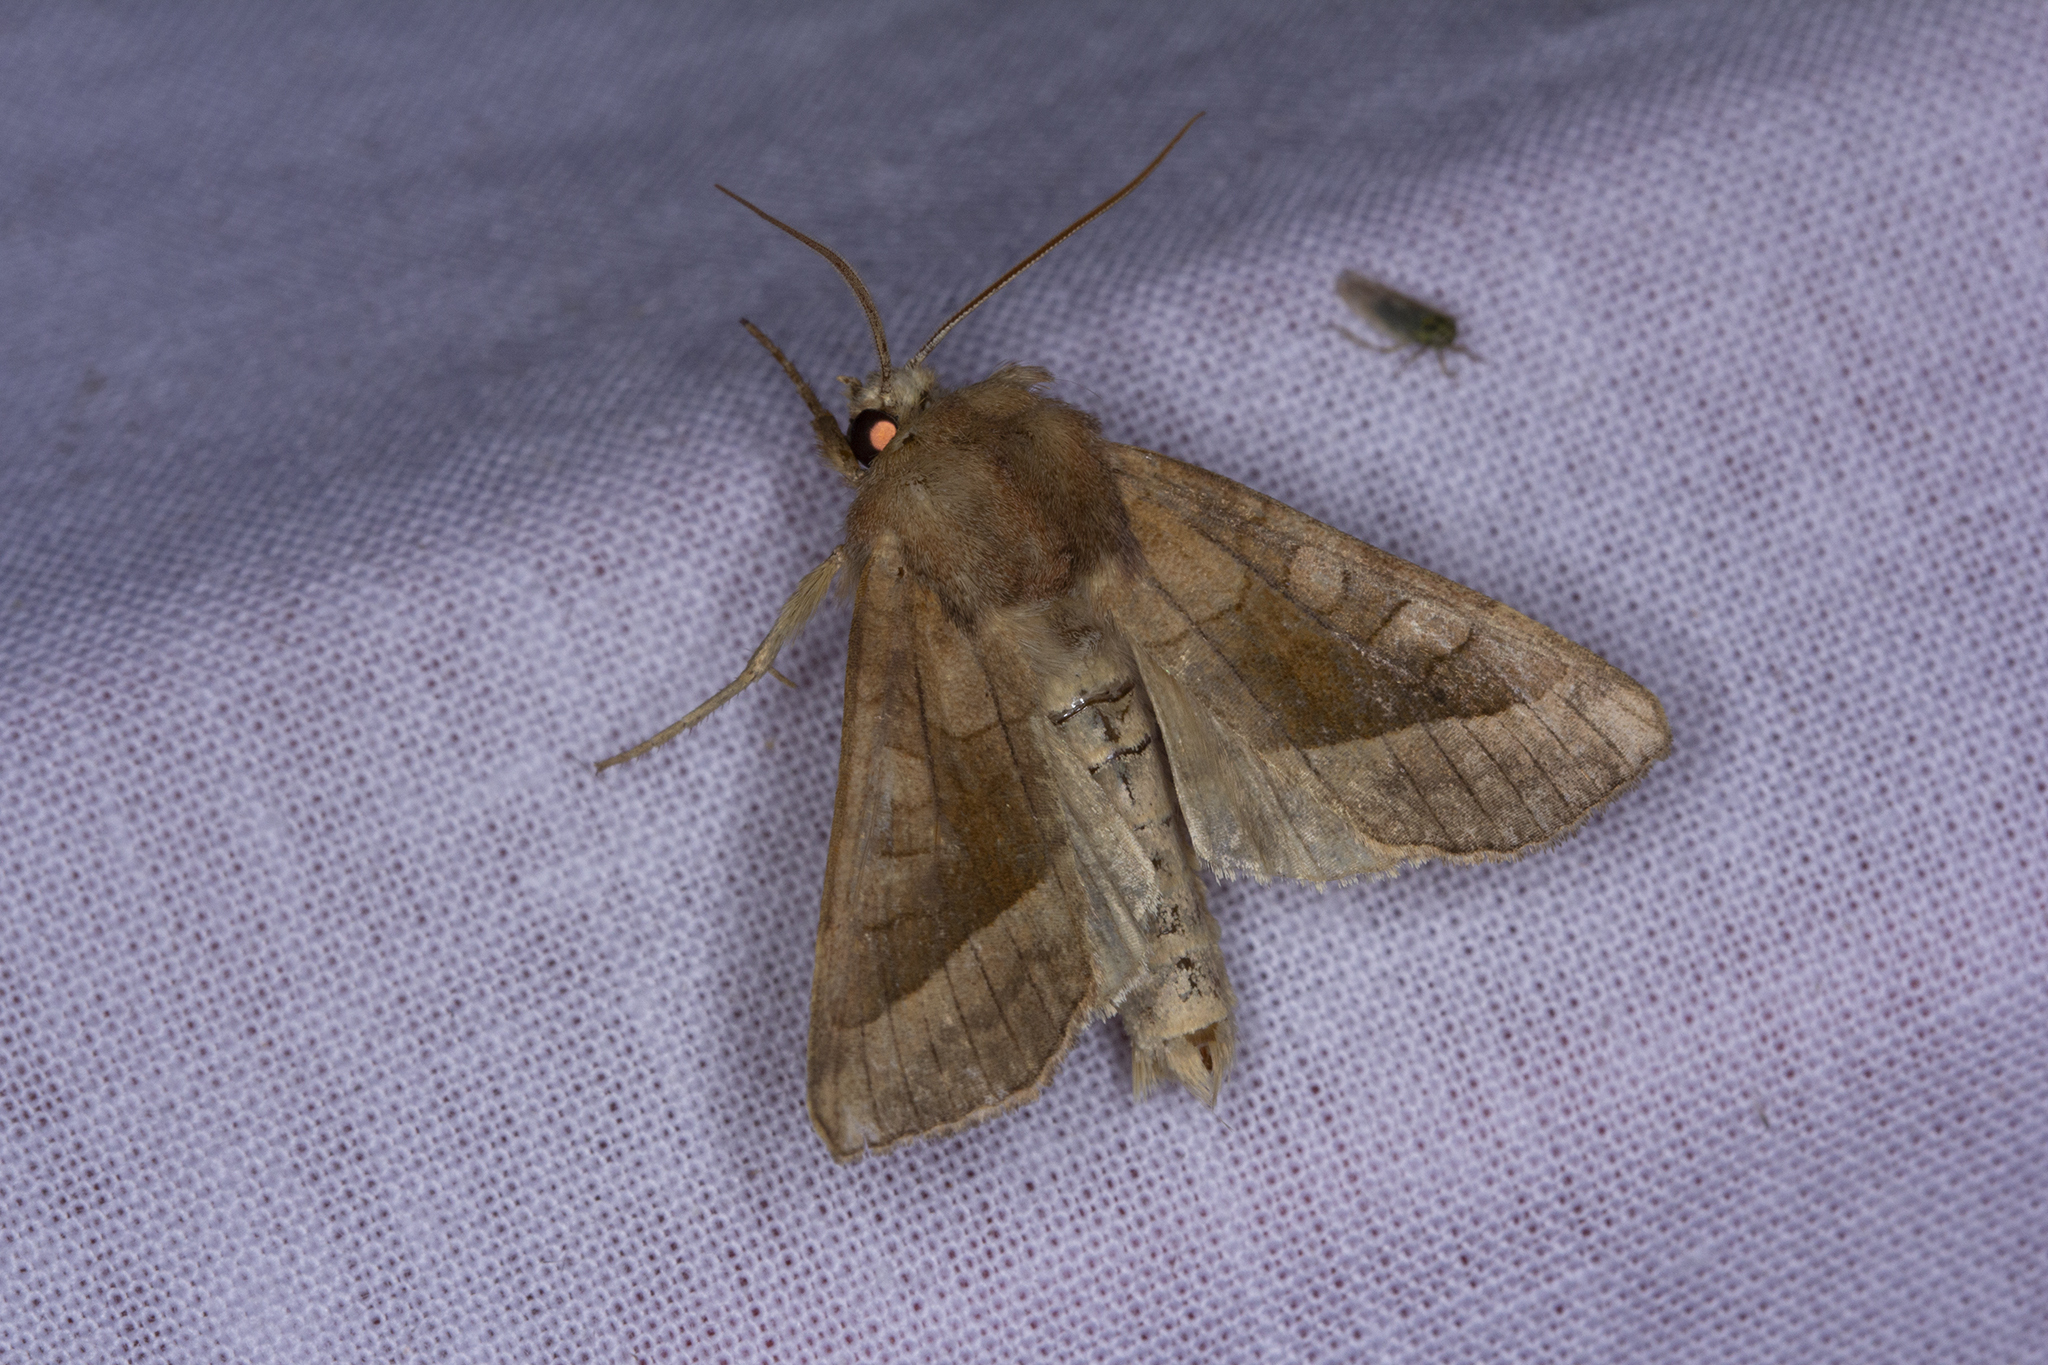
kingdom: Animalia
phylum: Arthropoda
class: Insecta
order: Lepidoptera
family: Noctuidae
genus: Hydraecia
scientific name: Hydraecia micacea
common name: Rosy rustic
